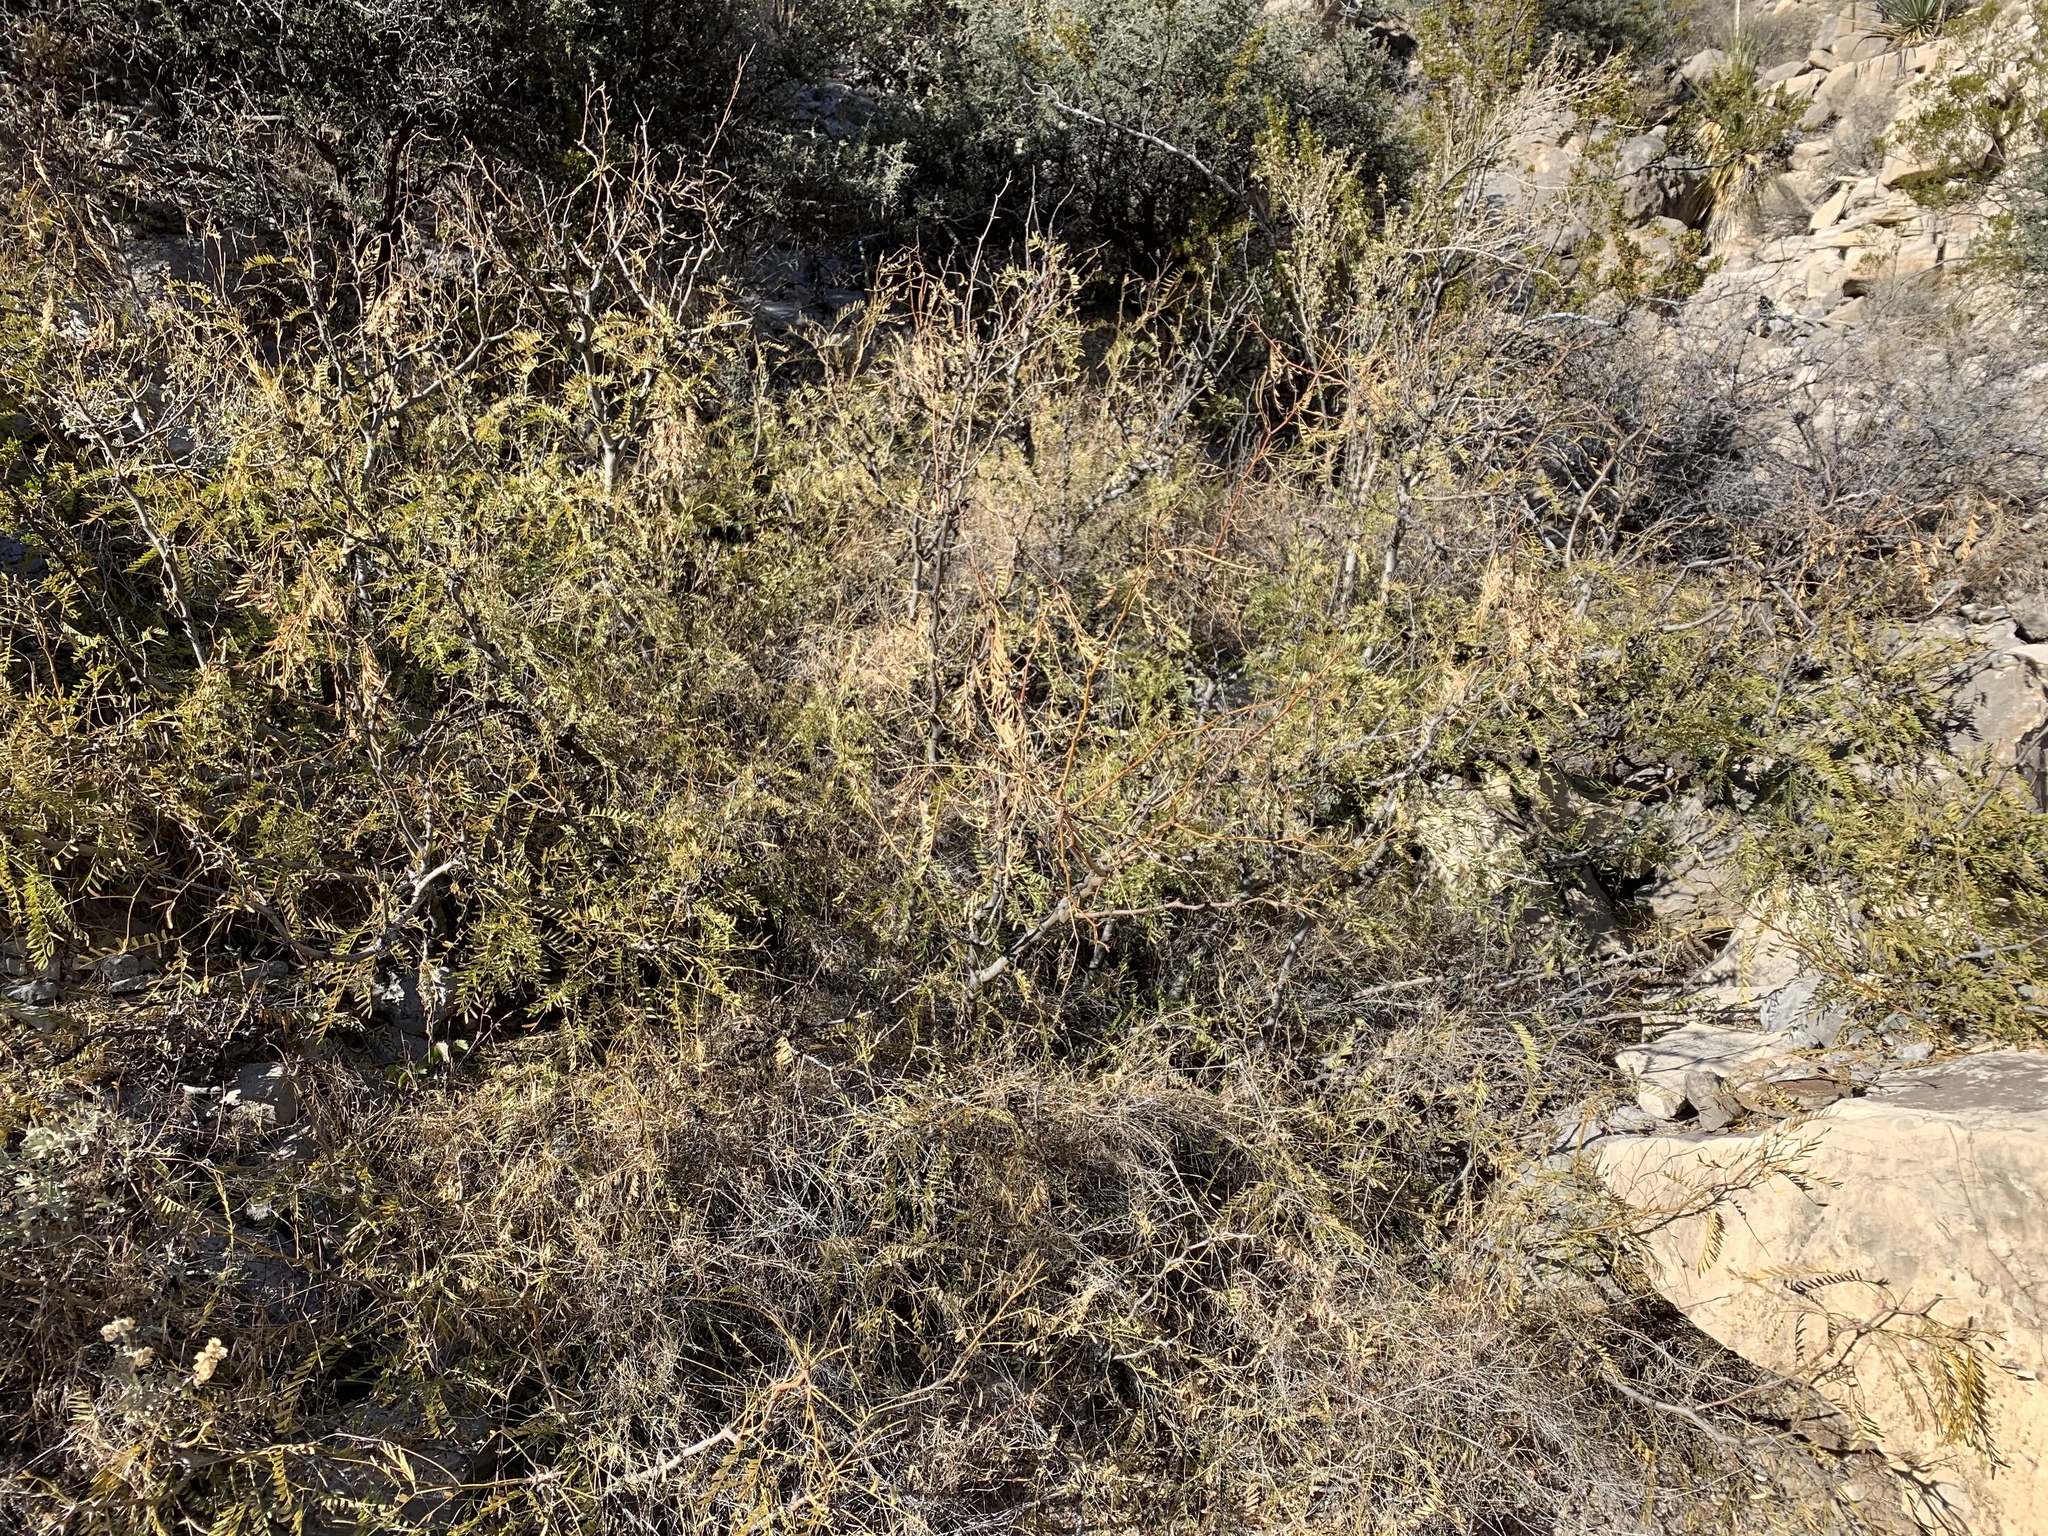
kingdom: Plantae
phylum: Tracheophyta
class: Magnoliopsida
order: Fabales
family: Fabaceae
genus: Prosopis
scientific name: Prosopis glandulosa
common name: Honey mesquite
